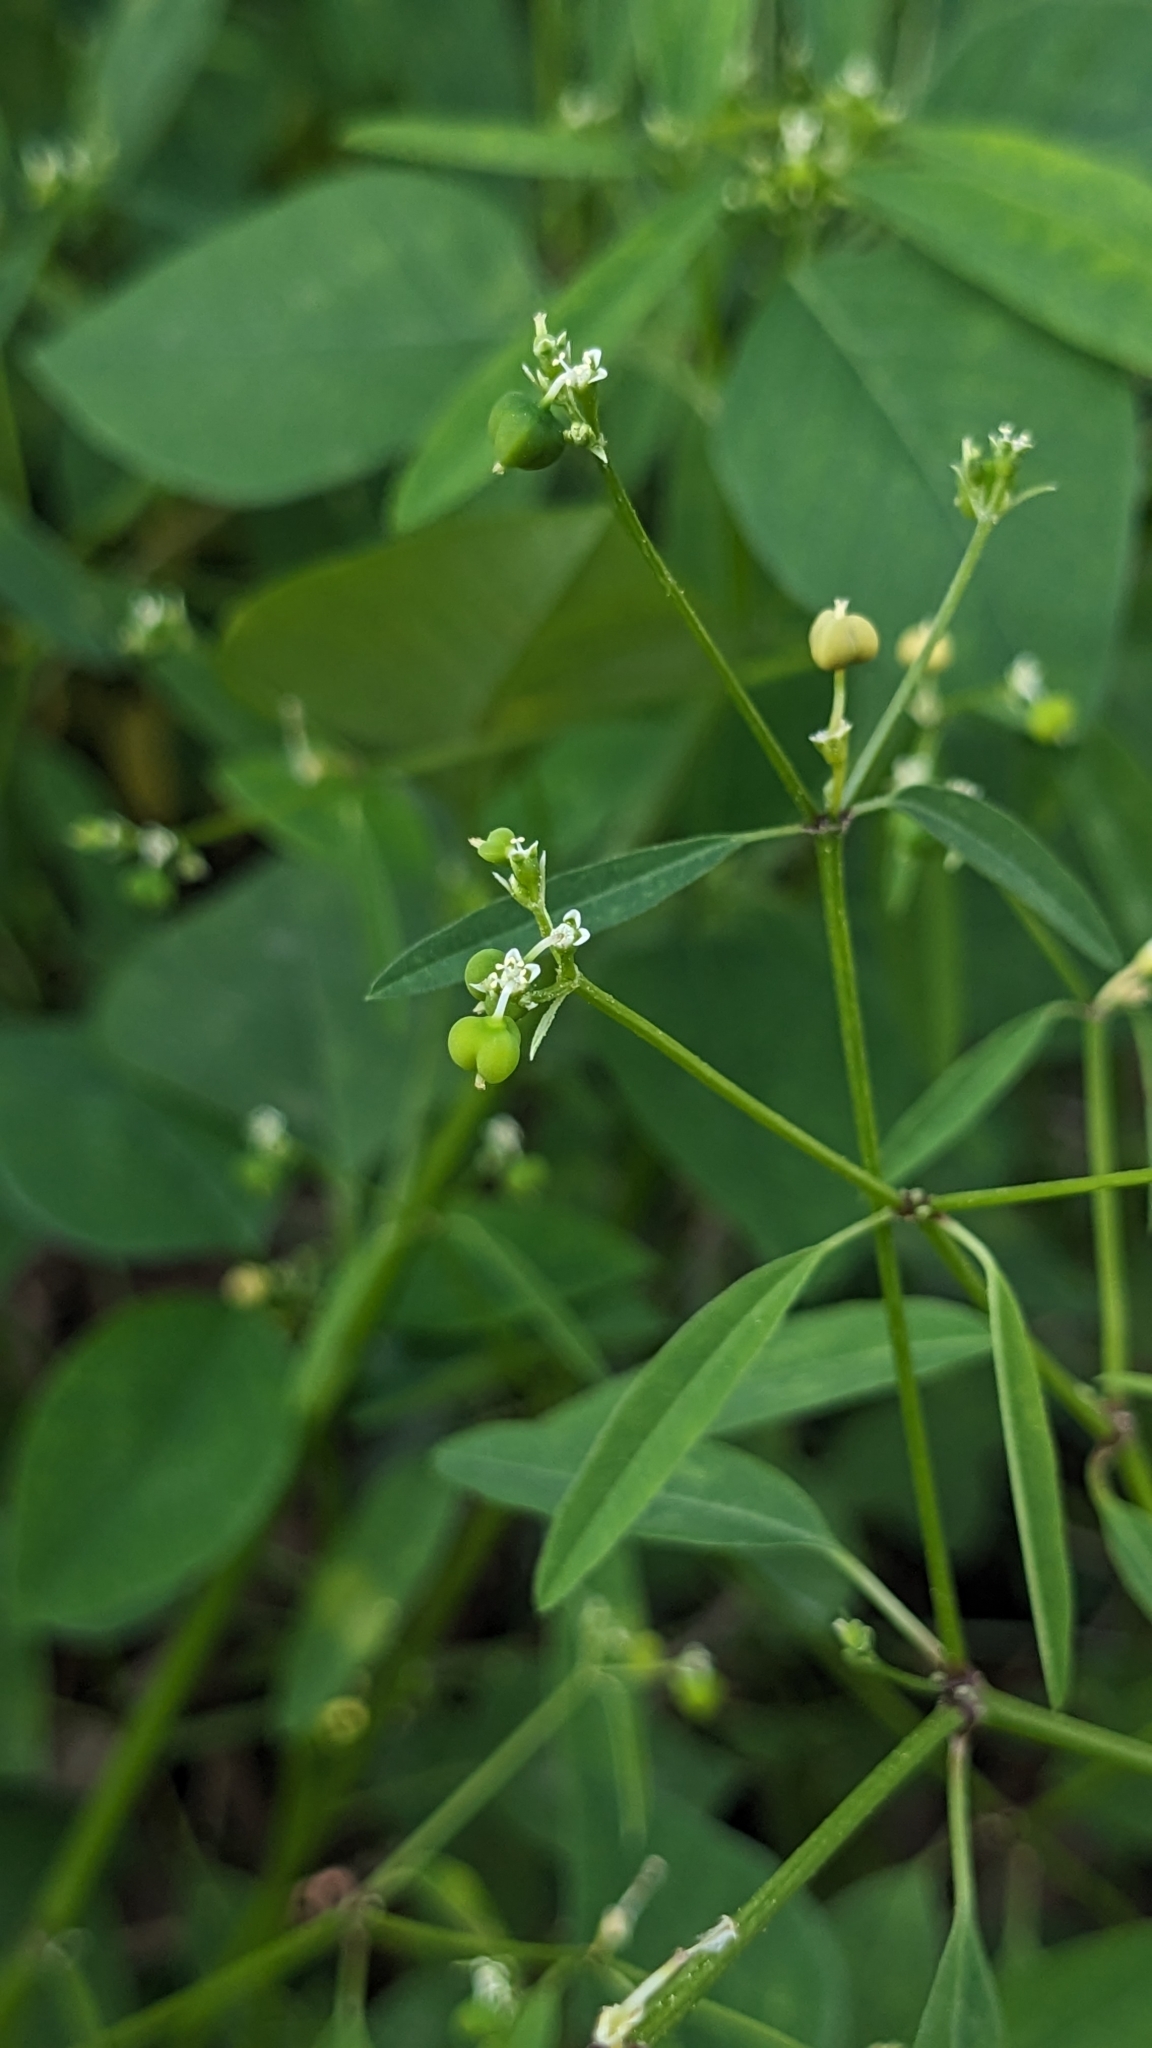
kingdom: Plantae
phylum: Tracheophyta
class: Magnoliopsida
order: Malpighiales
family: Euphorbiaceae
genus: Euphorbia
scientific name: Euphorbia graminea
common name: Grassleaf spurge
